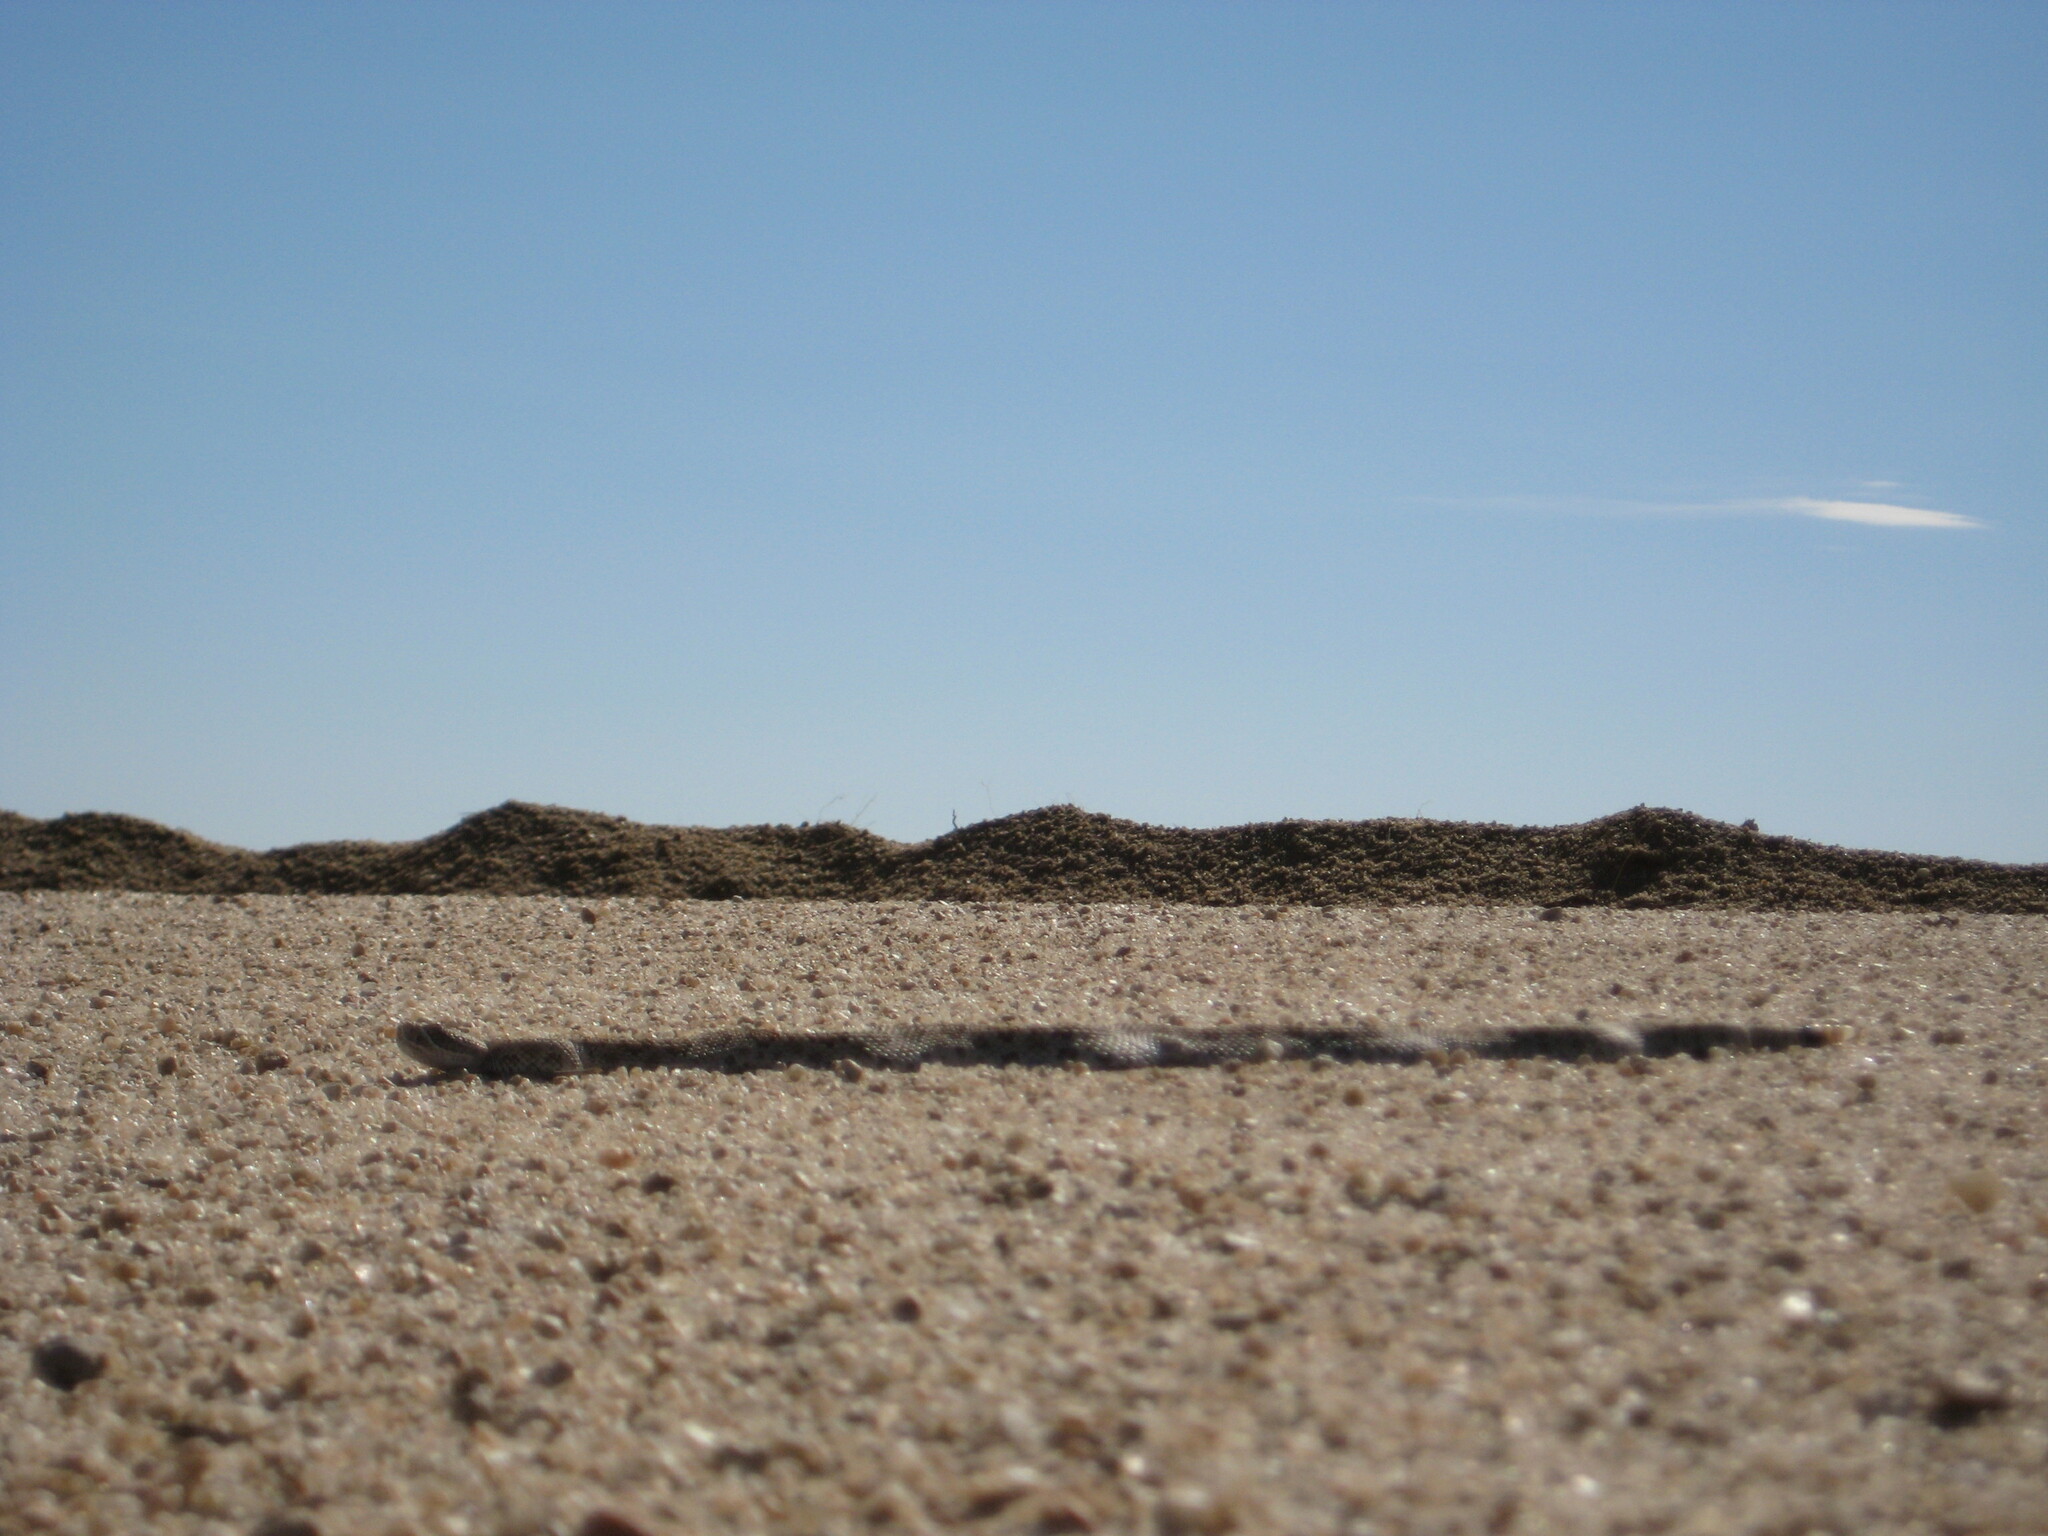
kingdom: Animalia
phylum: Chordata
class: Squamata
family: Viperidae
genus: Crotalus
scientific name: Crotalus viridis
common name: Prairie rattlesnake
